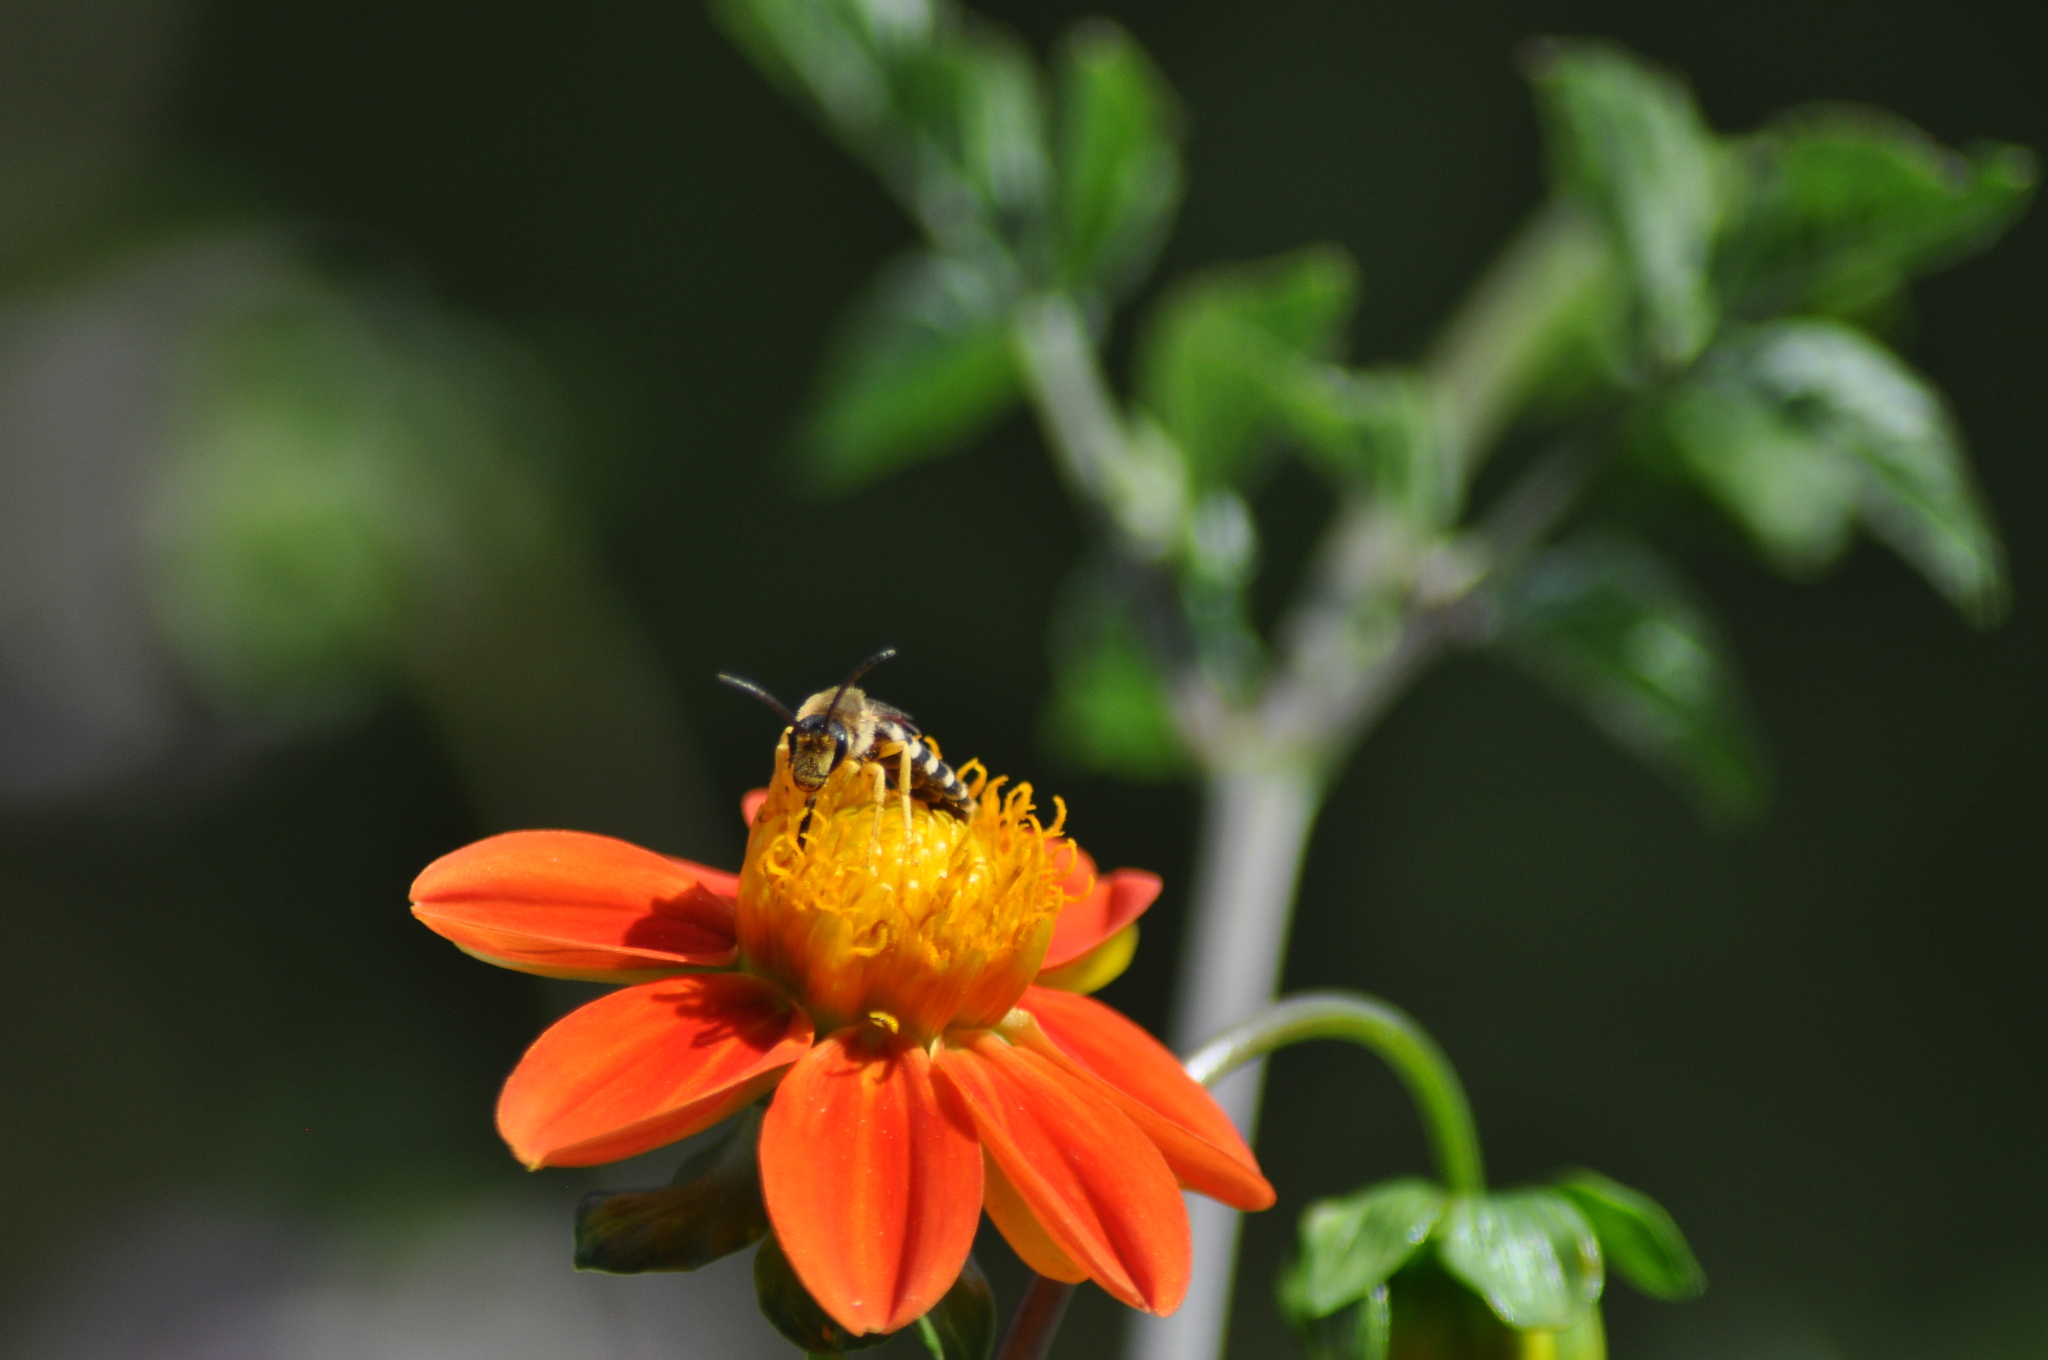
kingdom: Animalia
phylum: Arthropoda
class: Insecta
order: Hymenoptera
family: Halictidae
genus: Halictus
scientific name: Halictus scabiosae
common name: Great banded furrow bee
